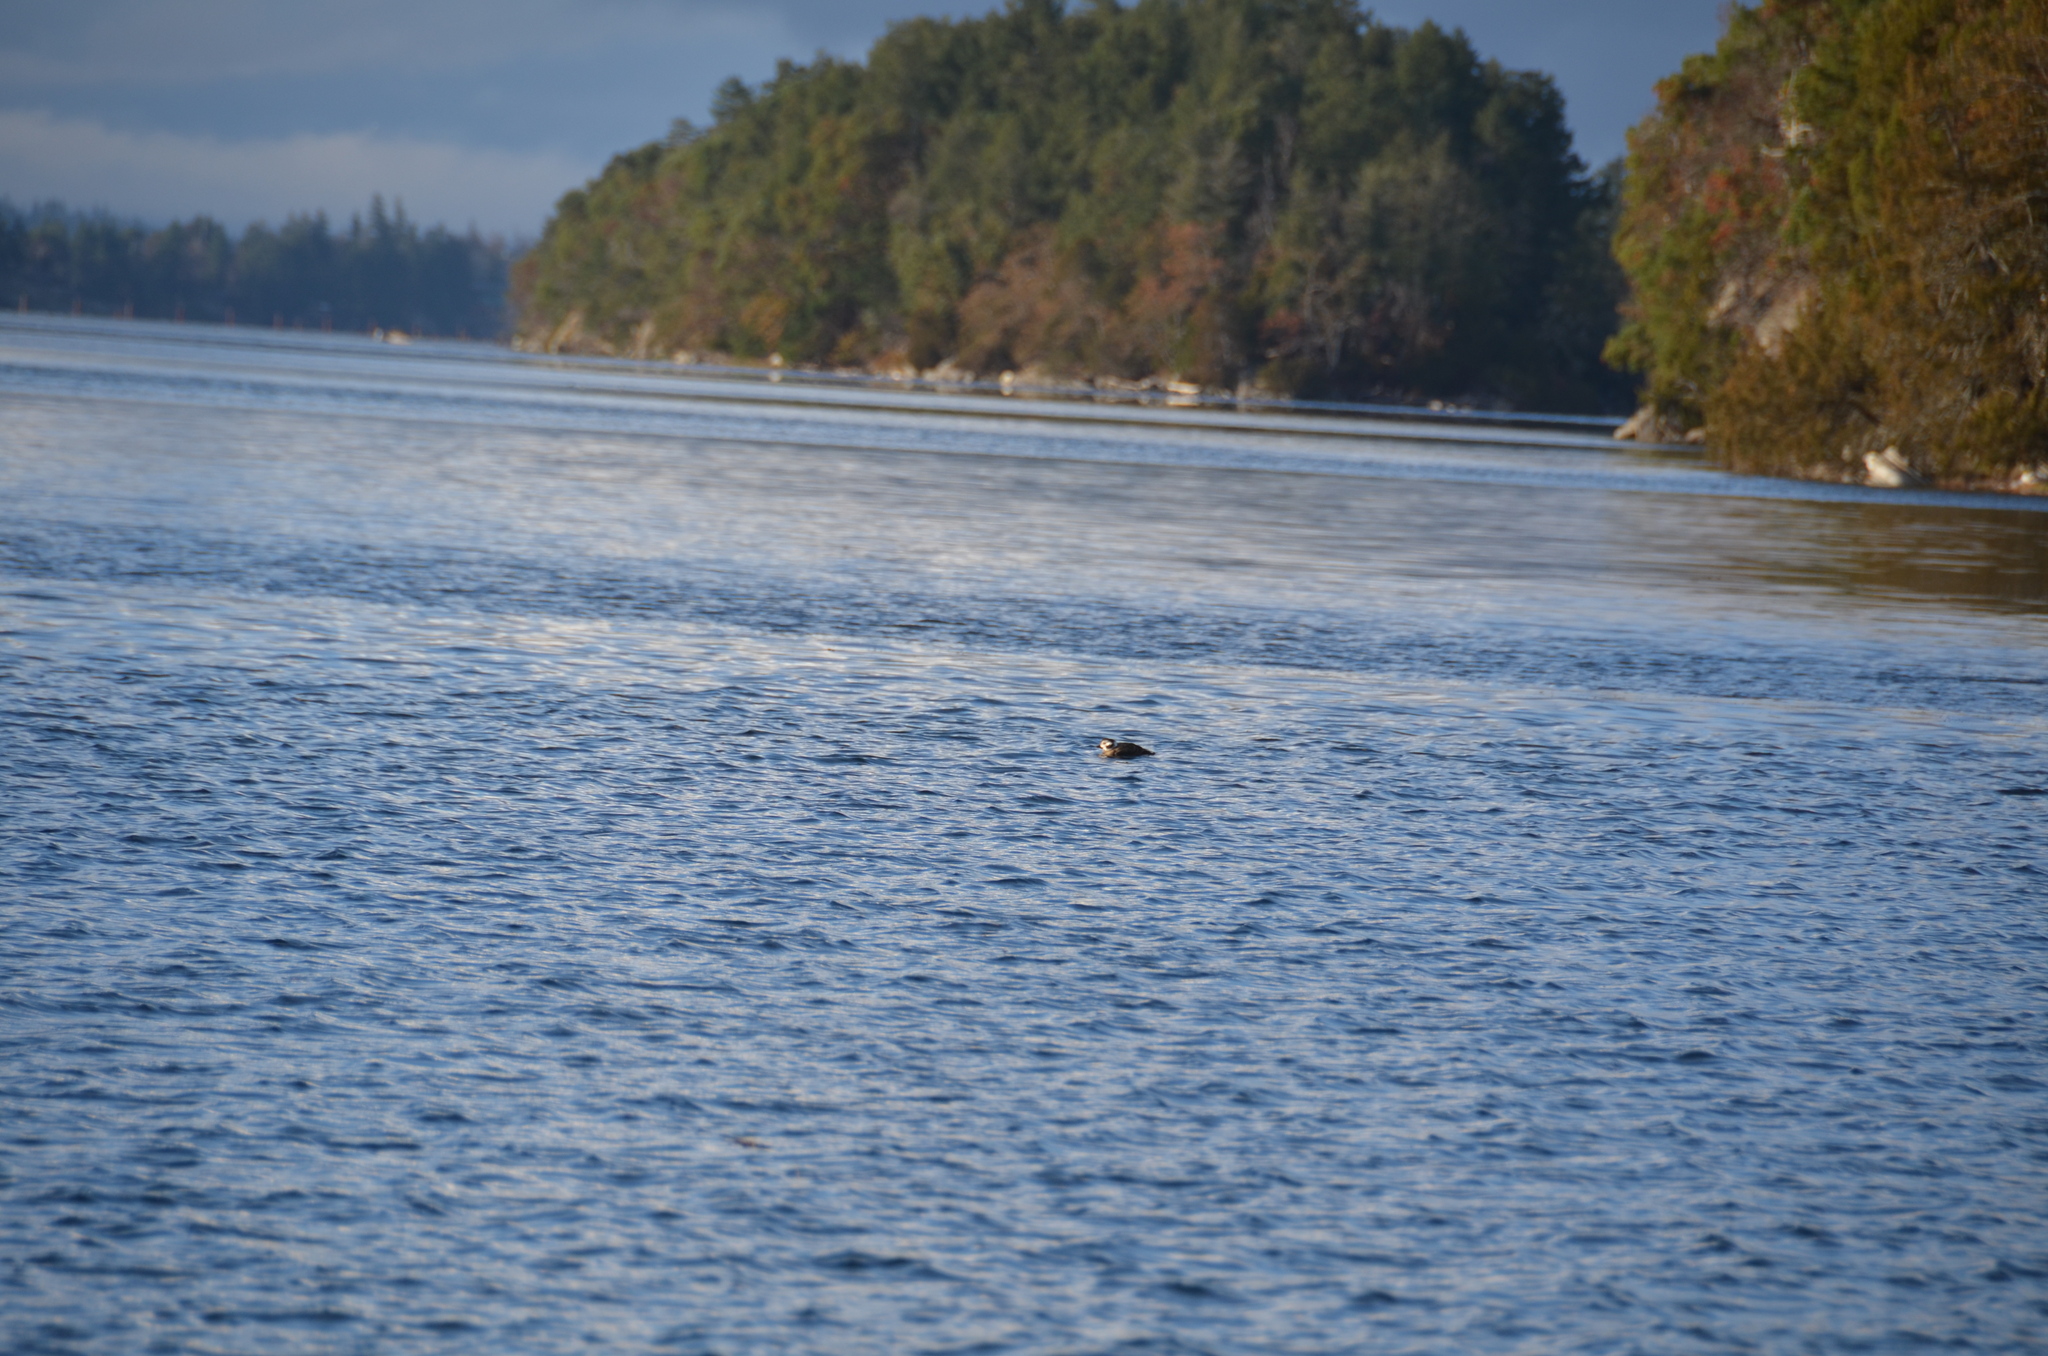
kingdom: Animalia
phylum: Chordata
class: Aves
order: Anseriformes
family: Anatidae
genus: Clangula
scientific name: Clangula hyemalis
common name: Long-tailed duck
